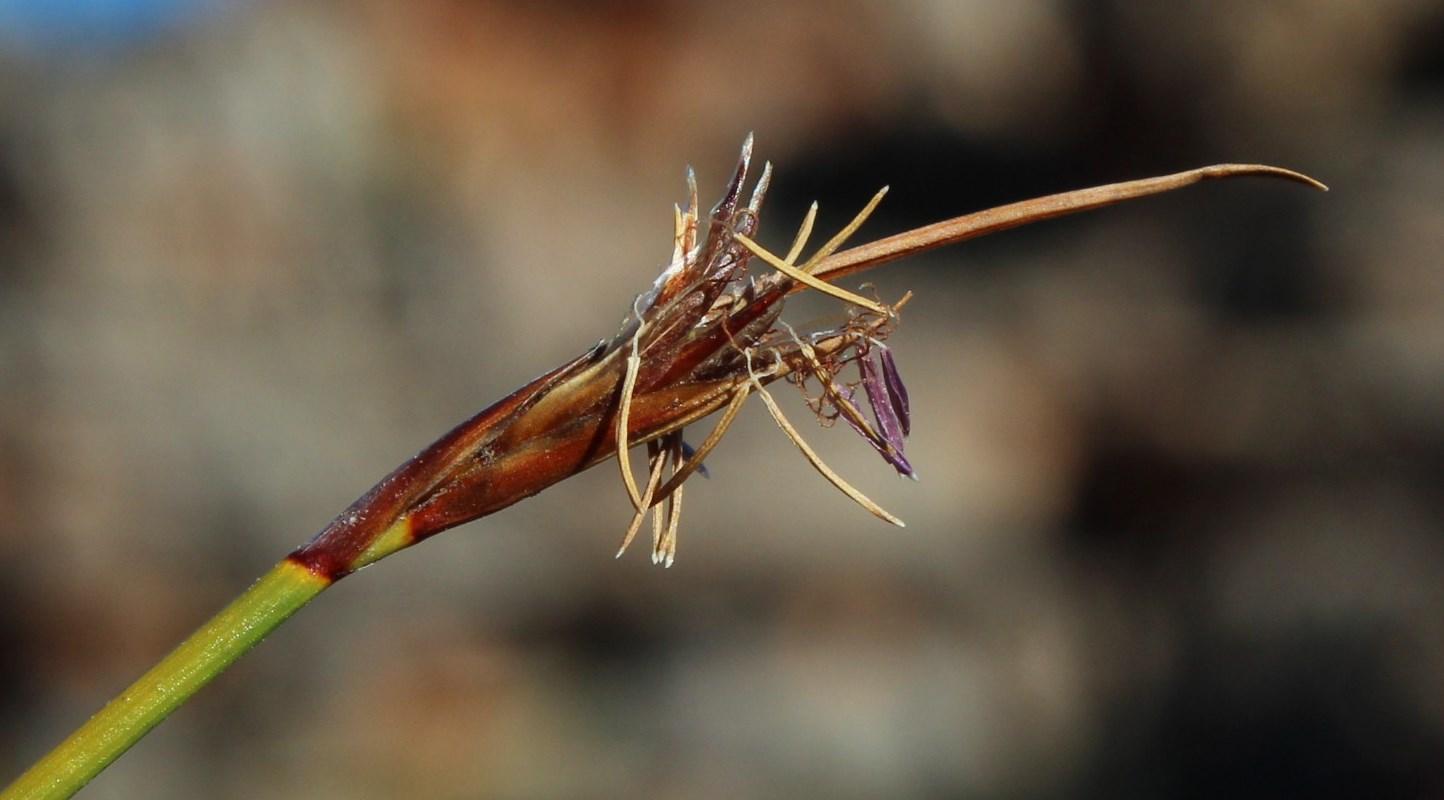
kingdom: Plantae
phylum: Tracheophyta
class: Liliopsida
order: Poales
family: Cyperaceae
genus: Schoenus
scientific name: Schoenus pictus
